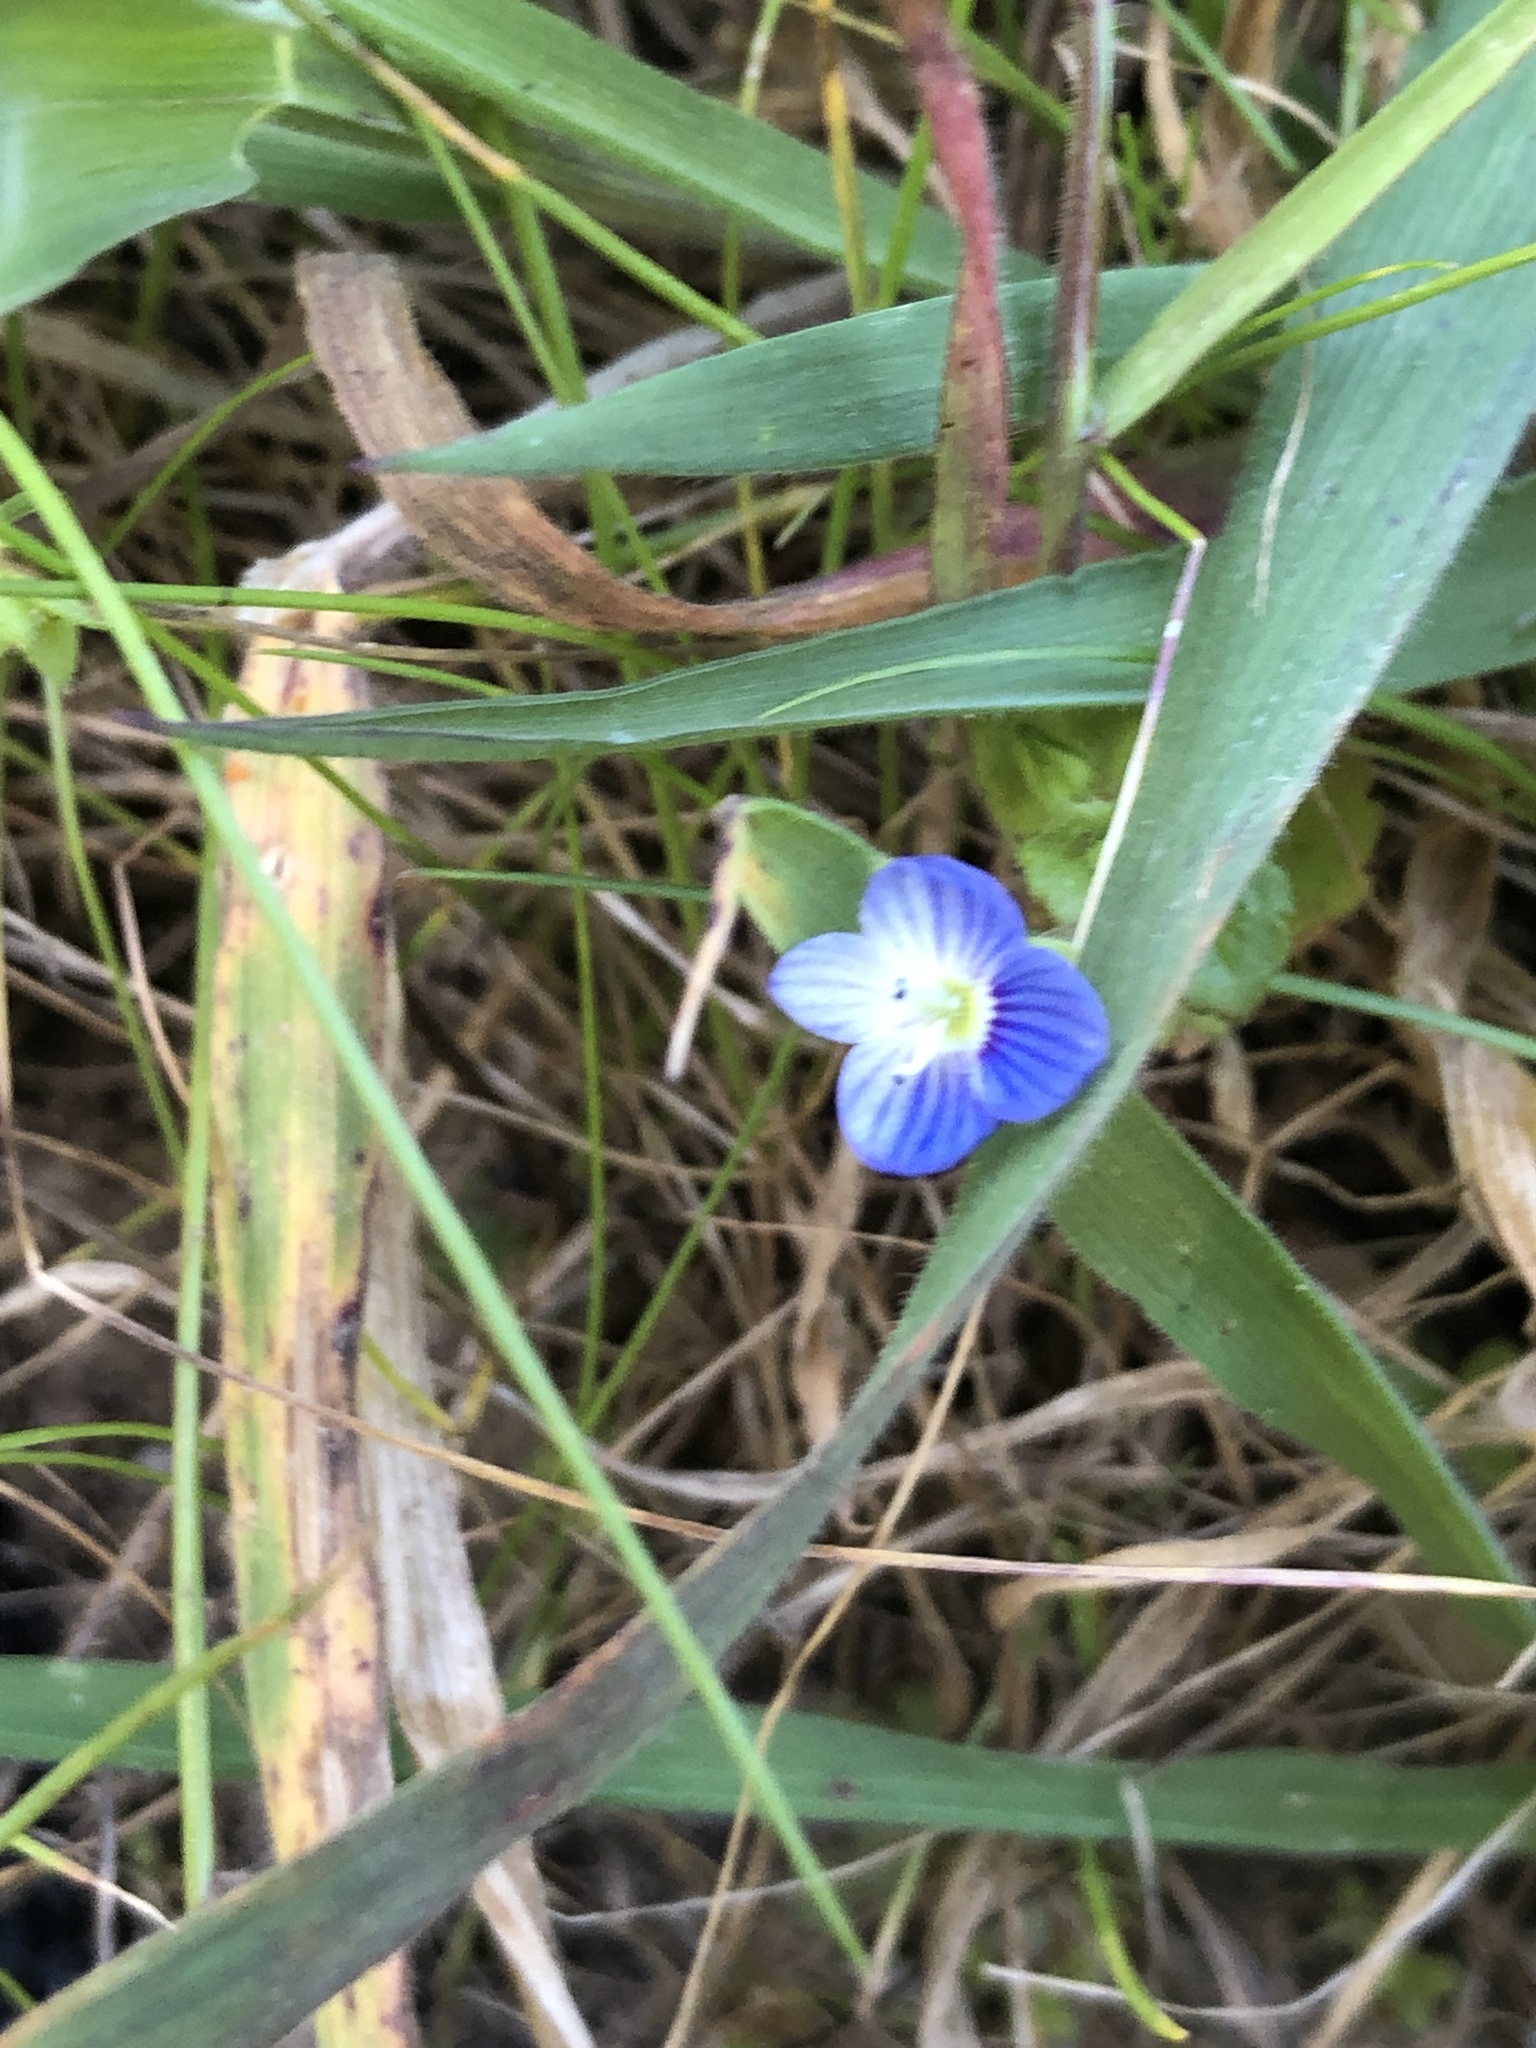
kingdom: Plantae
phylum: Tracheophyta
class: Magnoliopsida
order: Lamiales
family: Plantaginaceae
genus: Veronica
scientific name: Veronica persica
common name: Common field-speedwell
